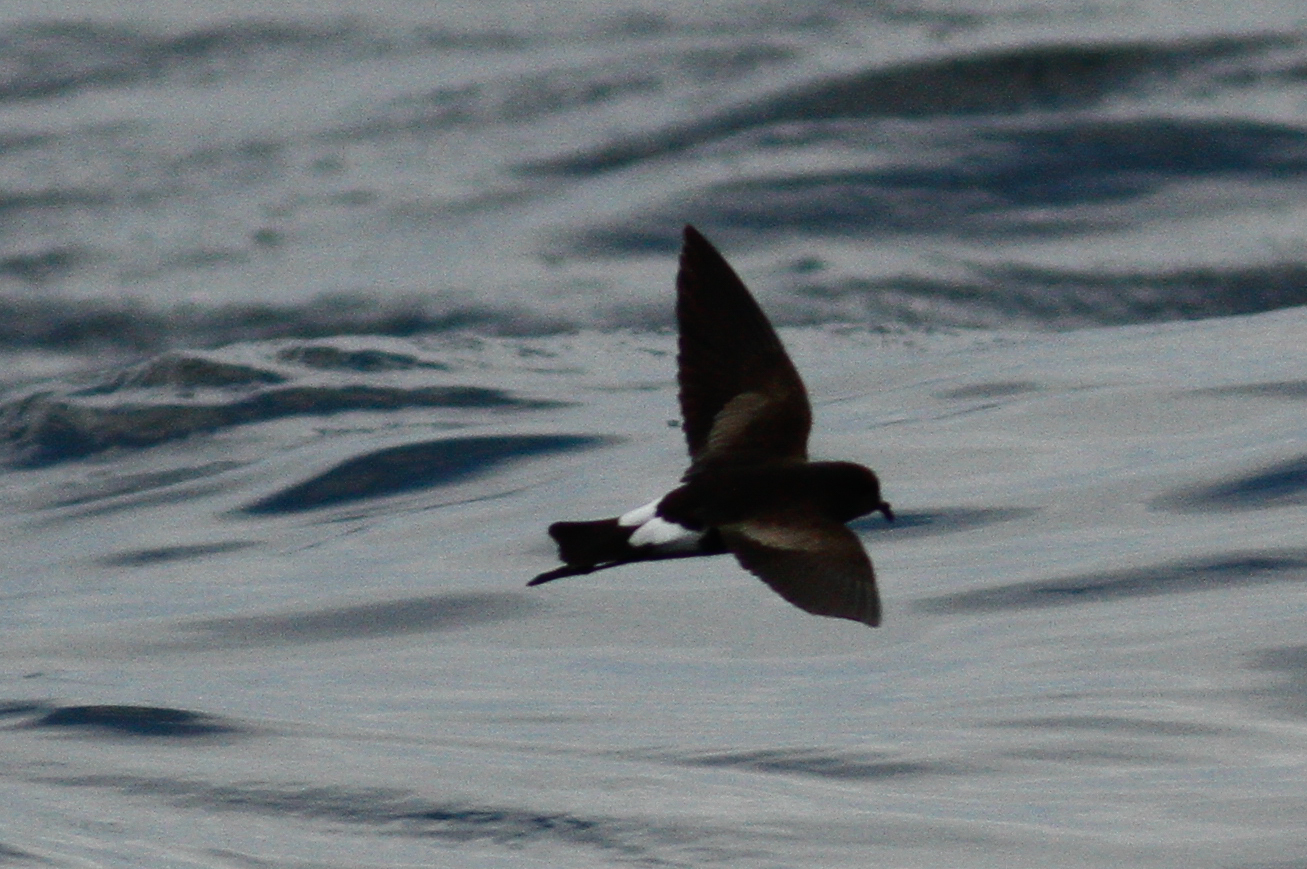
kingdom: Animalia
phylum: Chordata
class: Aves
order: Procellariiformes
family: Hydrobatidae
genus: Oceanites
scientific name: Oceanites oceanicus
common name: Wilson's storm petrel
